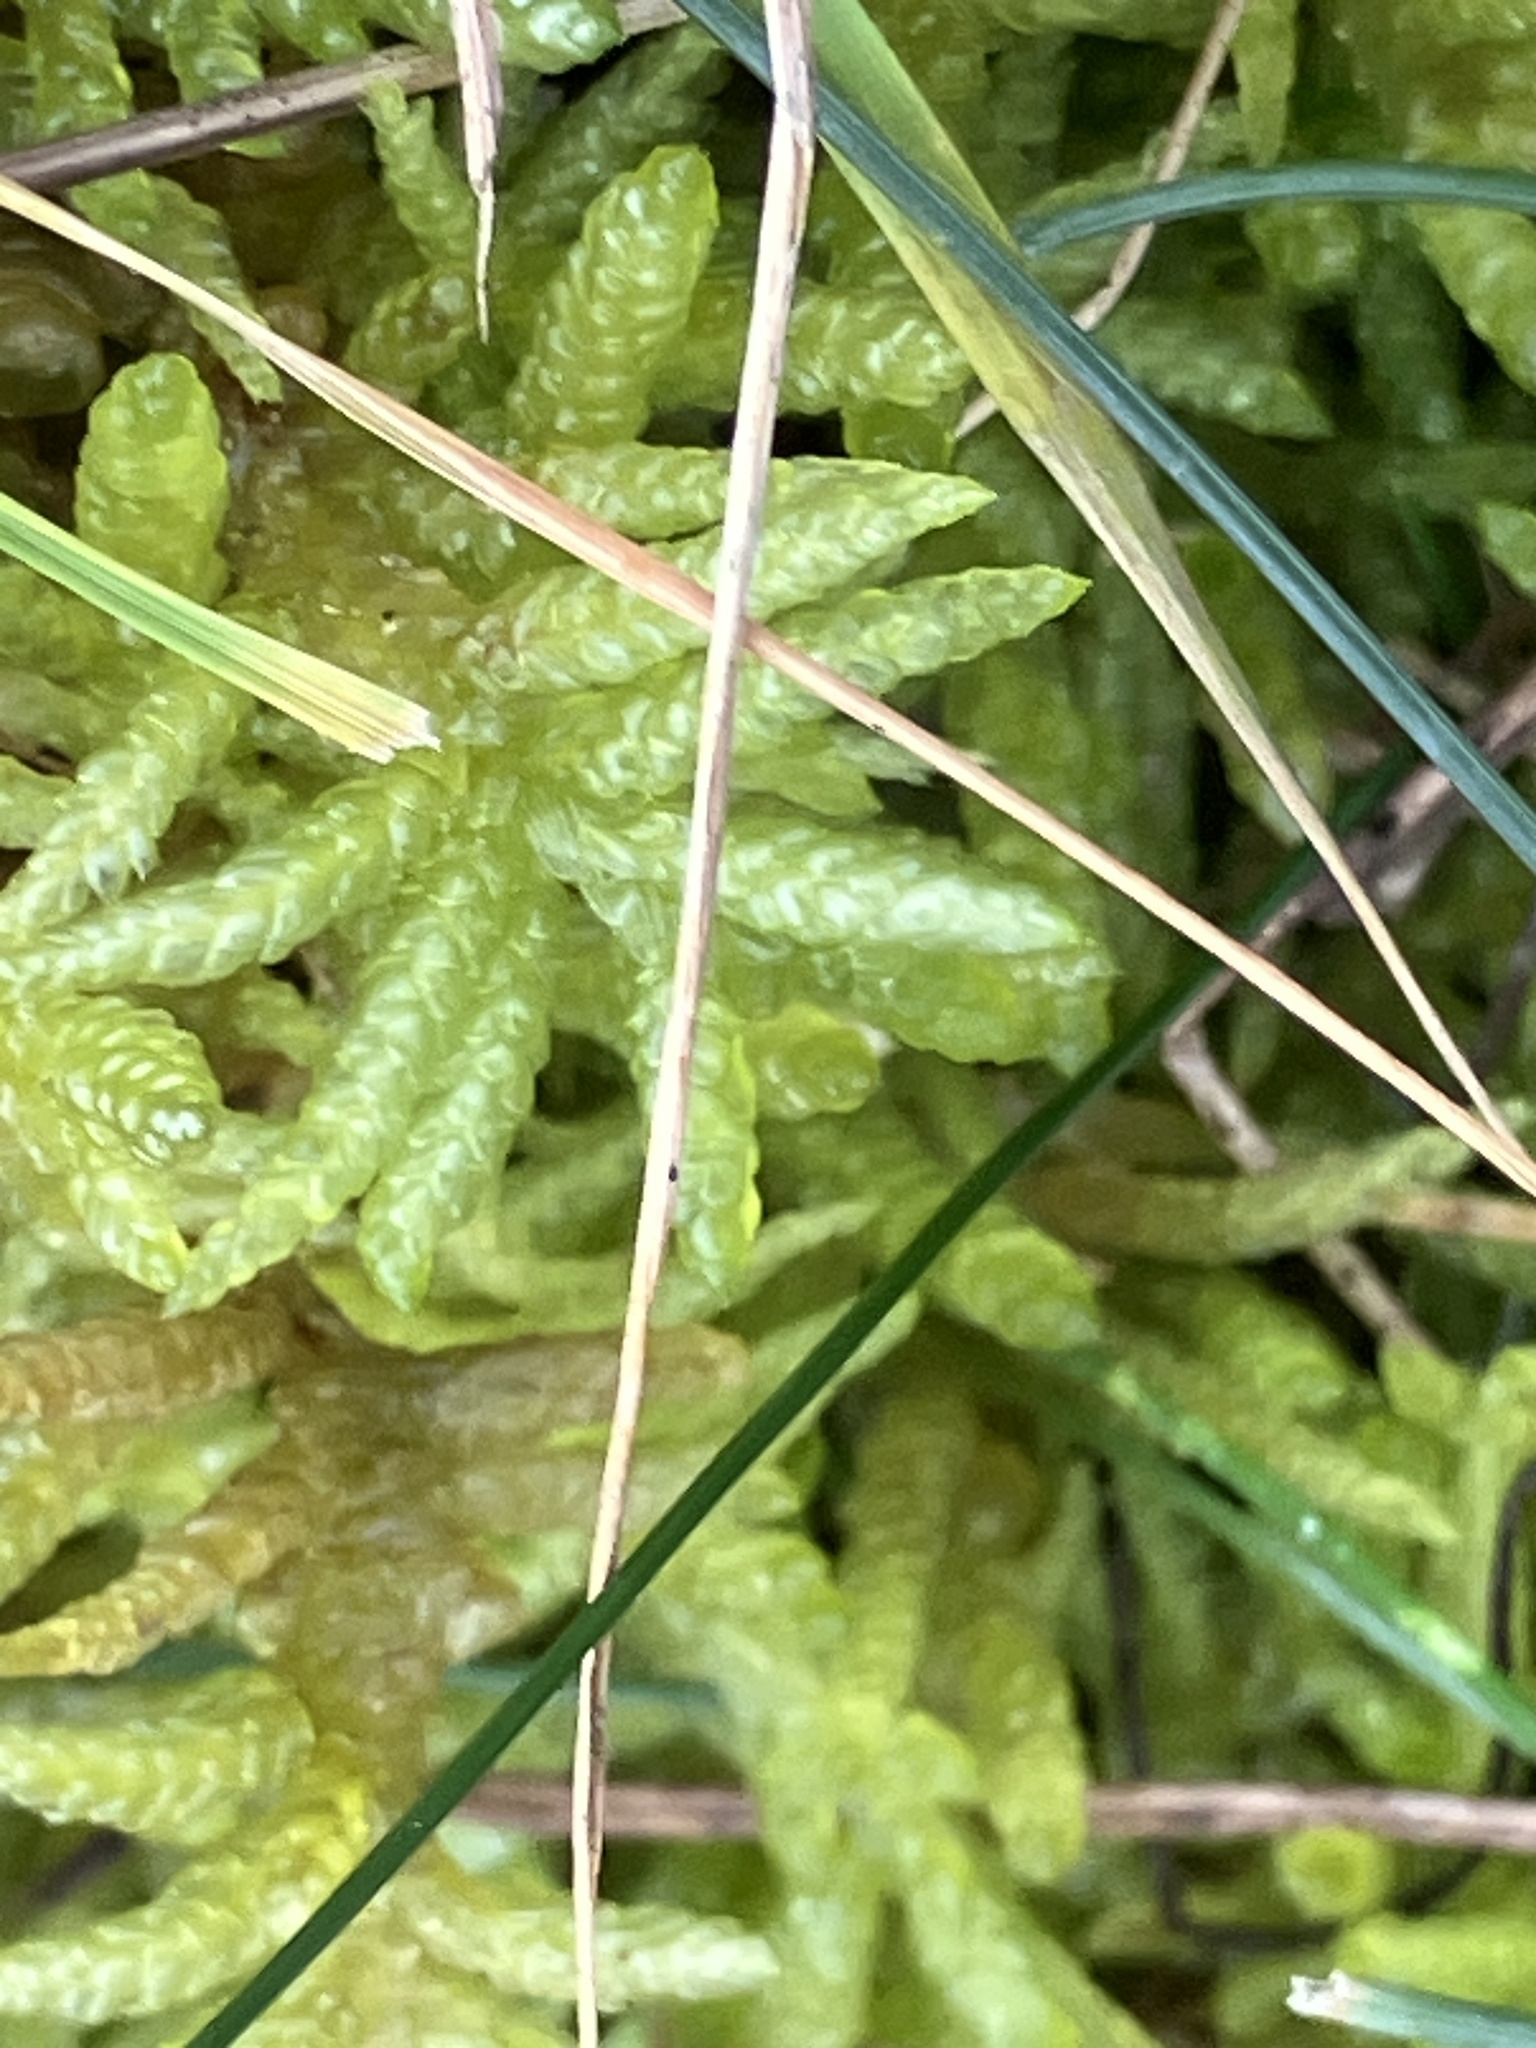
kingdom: Plantae
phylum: Bryophyta
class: Bryopsida
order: Hypnales
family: Brachytheciaceae
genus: Pseudoscleropodium
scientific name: Pseudoscleropodium purum
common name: Neat feather-moss
